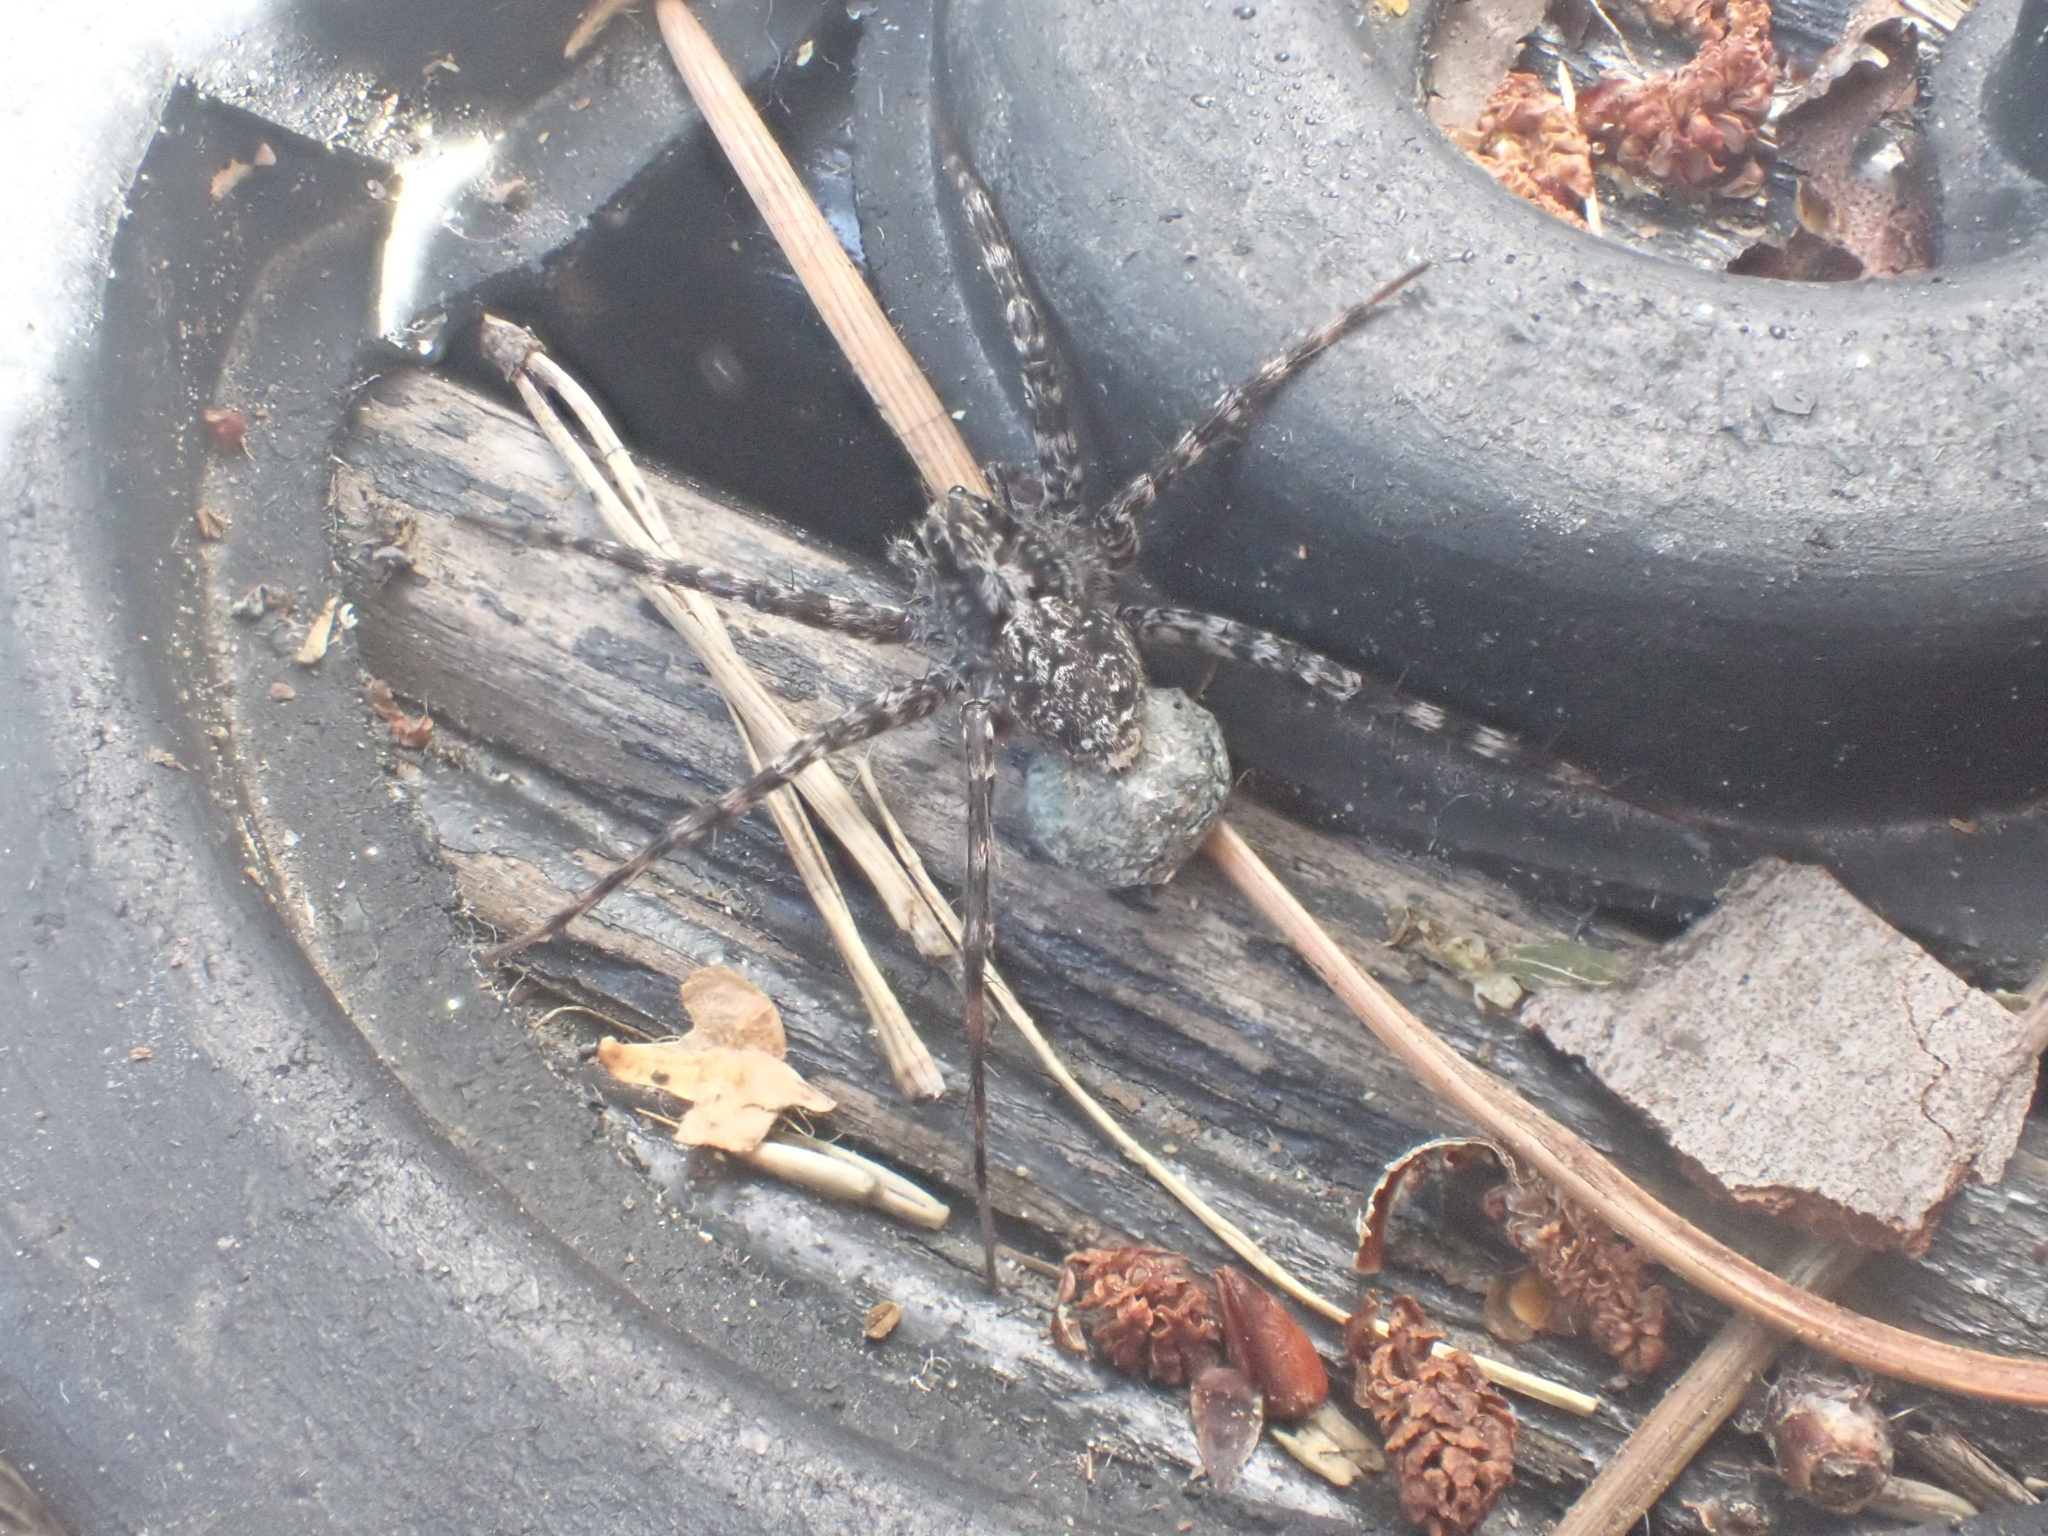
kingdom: Animalia
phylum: Arthropoda
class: Arachnida
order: Araneae
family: Lycosidae
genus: Acantholycosa
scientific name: Acantholycosa lignaria
